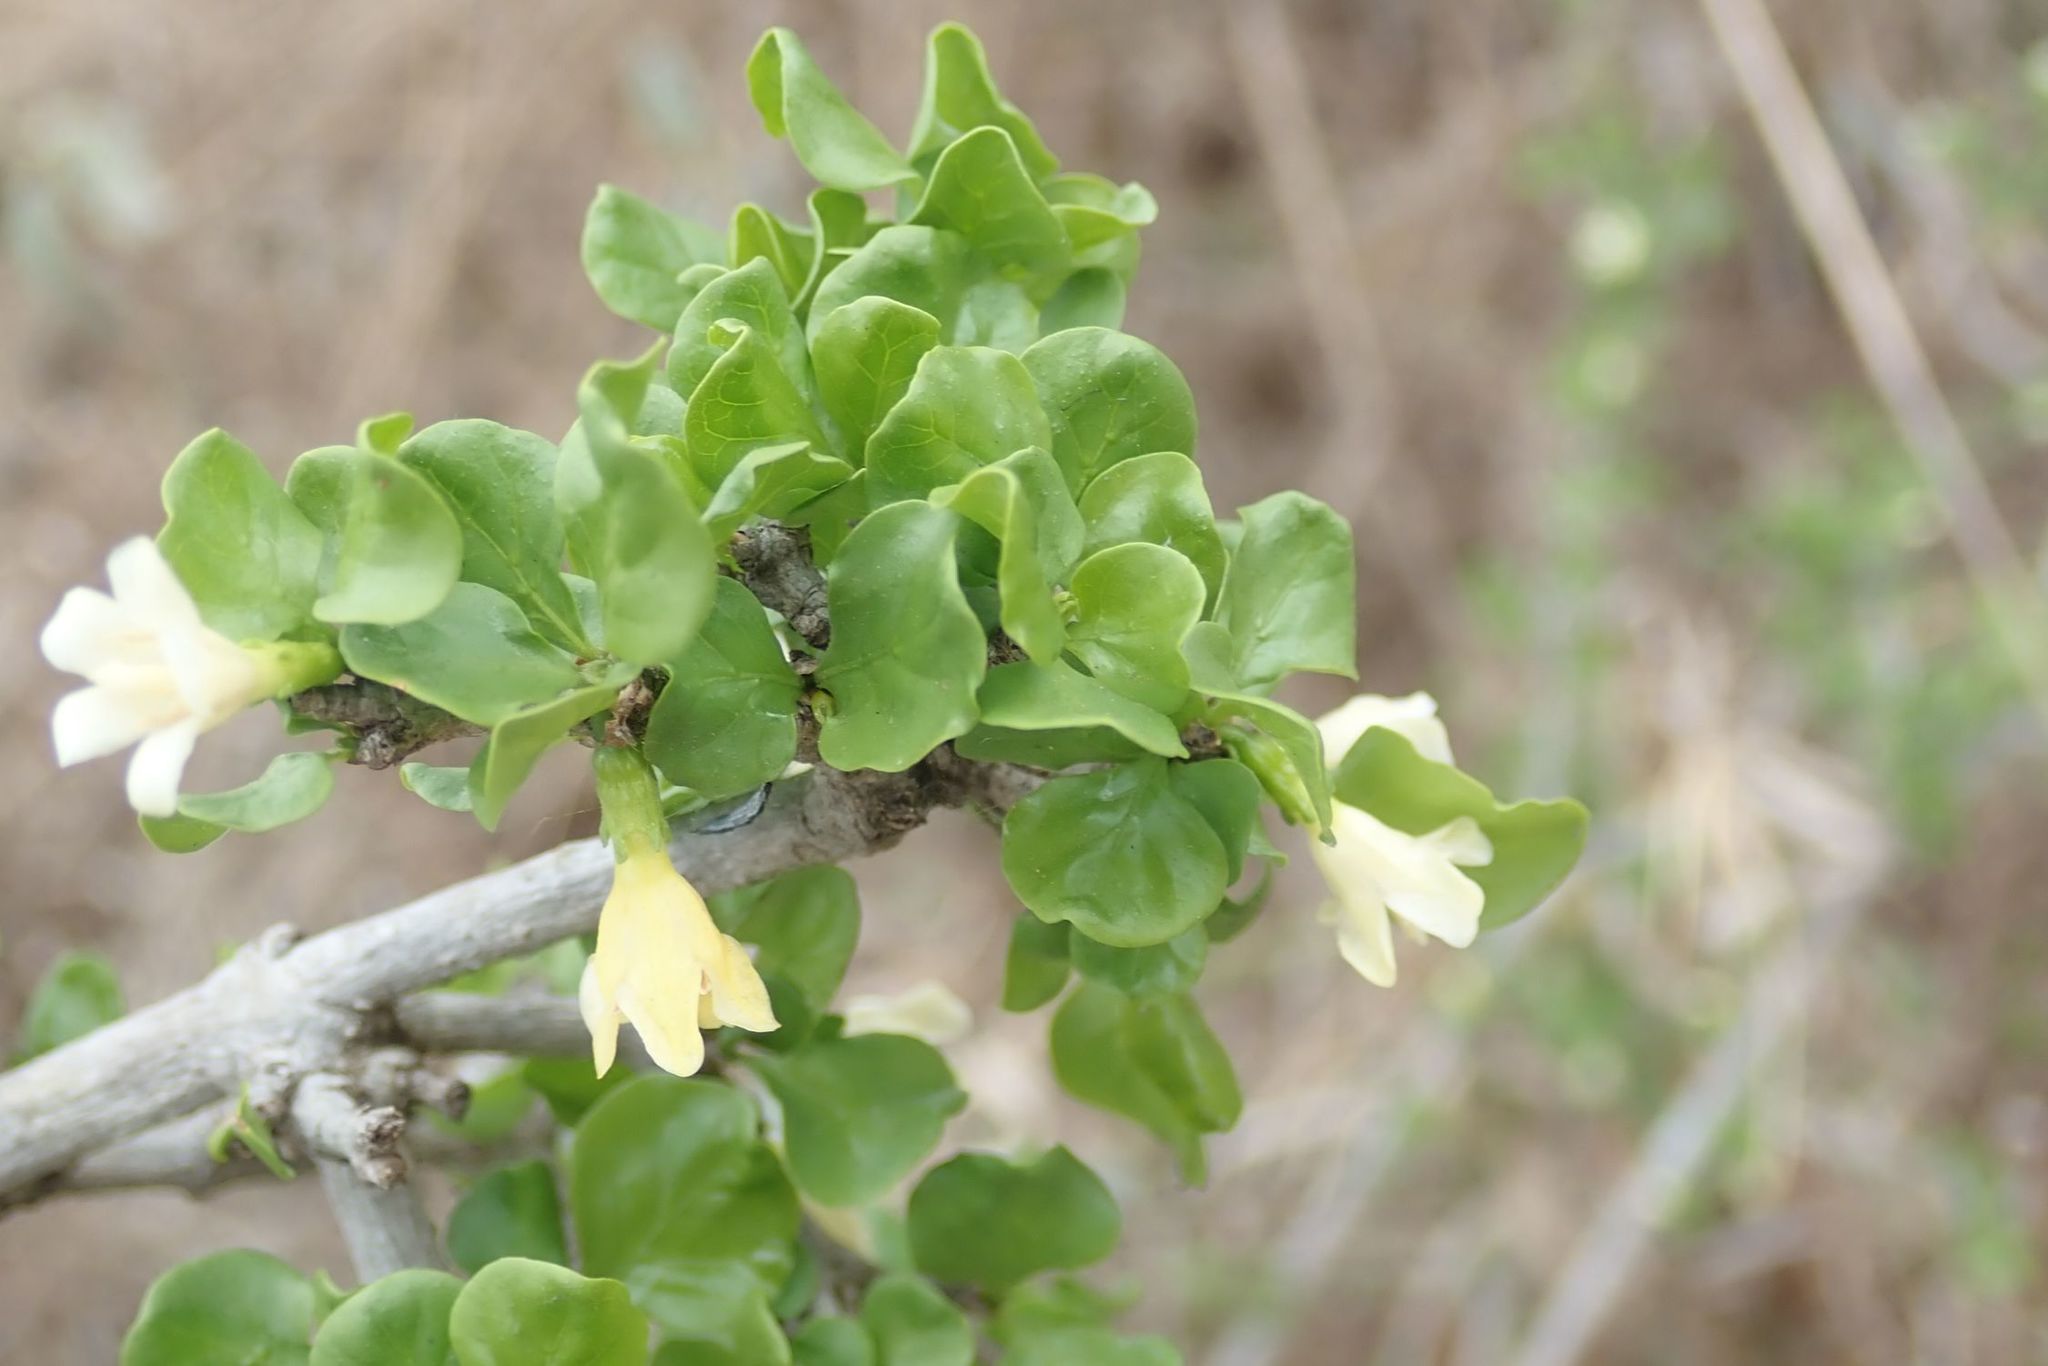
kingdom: Plantae
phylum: Tracheophyta
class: Magnoliopsida
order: Gentianales
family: Rubiaceae
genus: Coddia
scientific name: Coddia rudis
